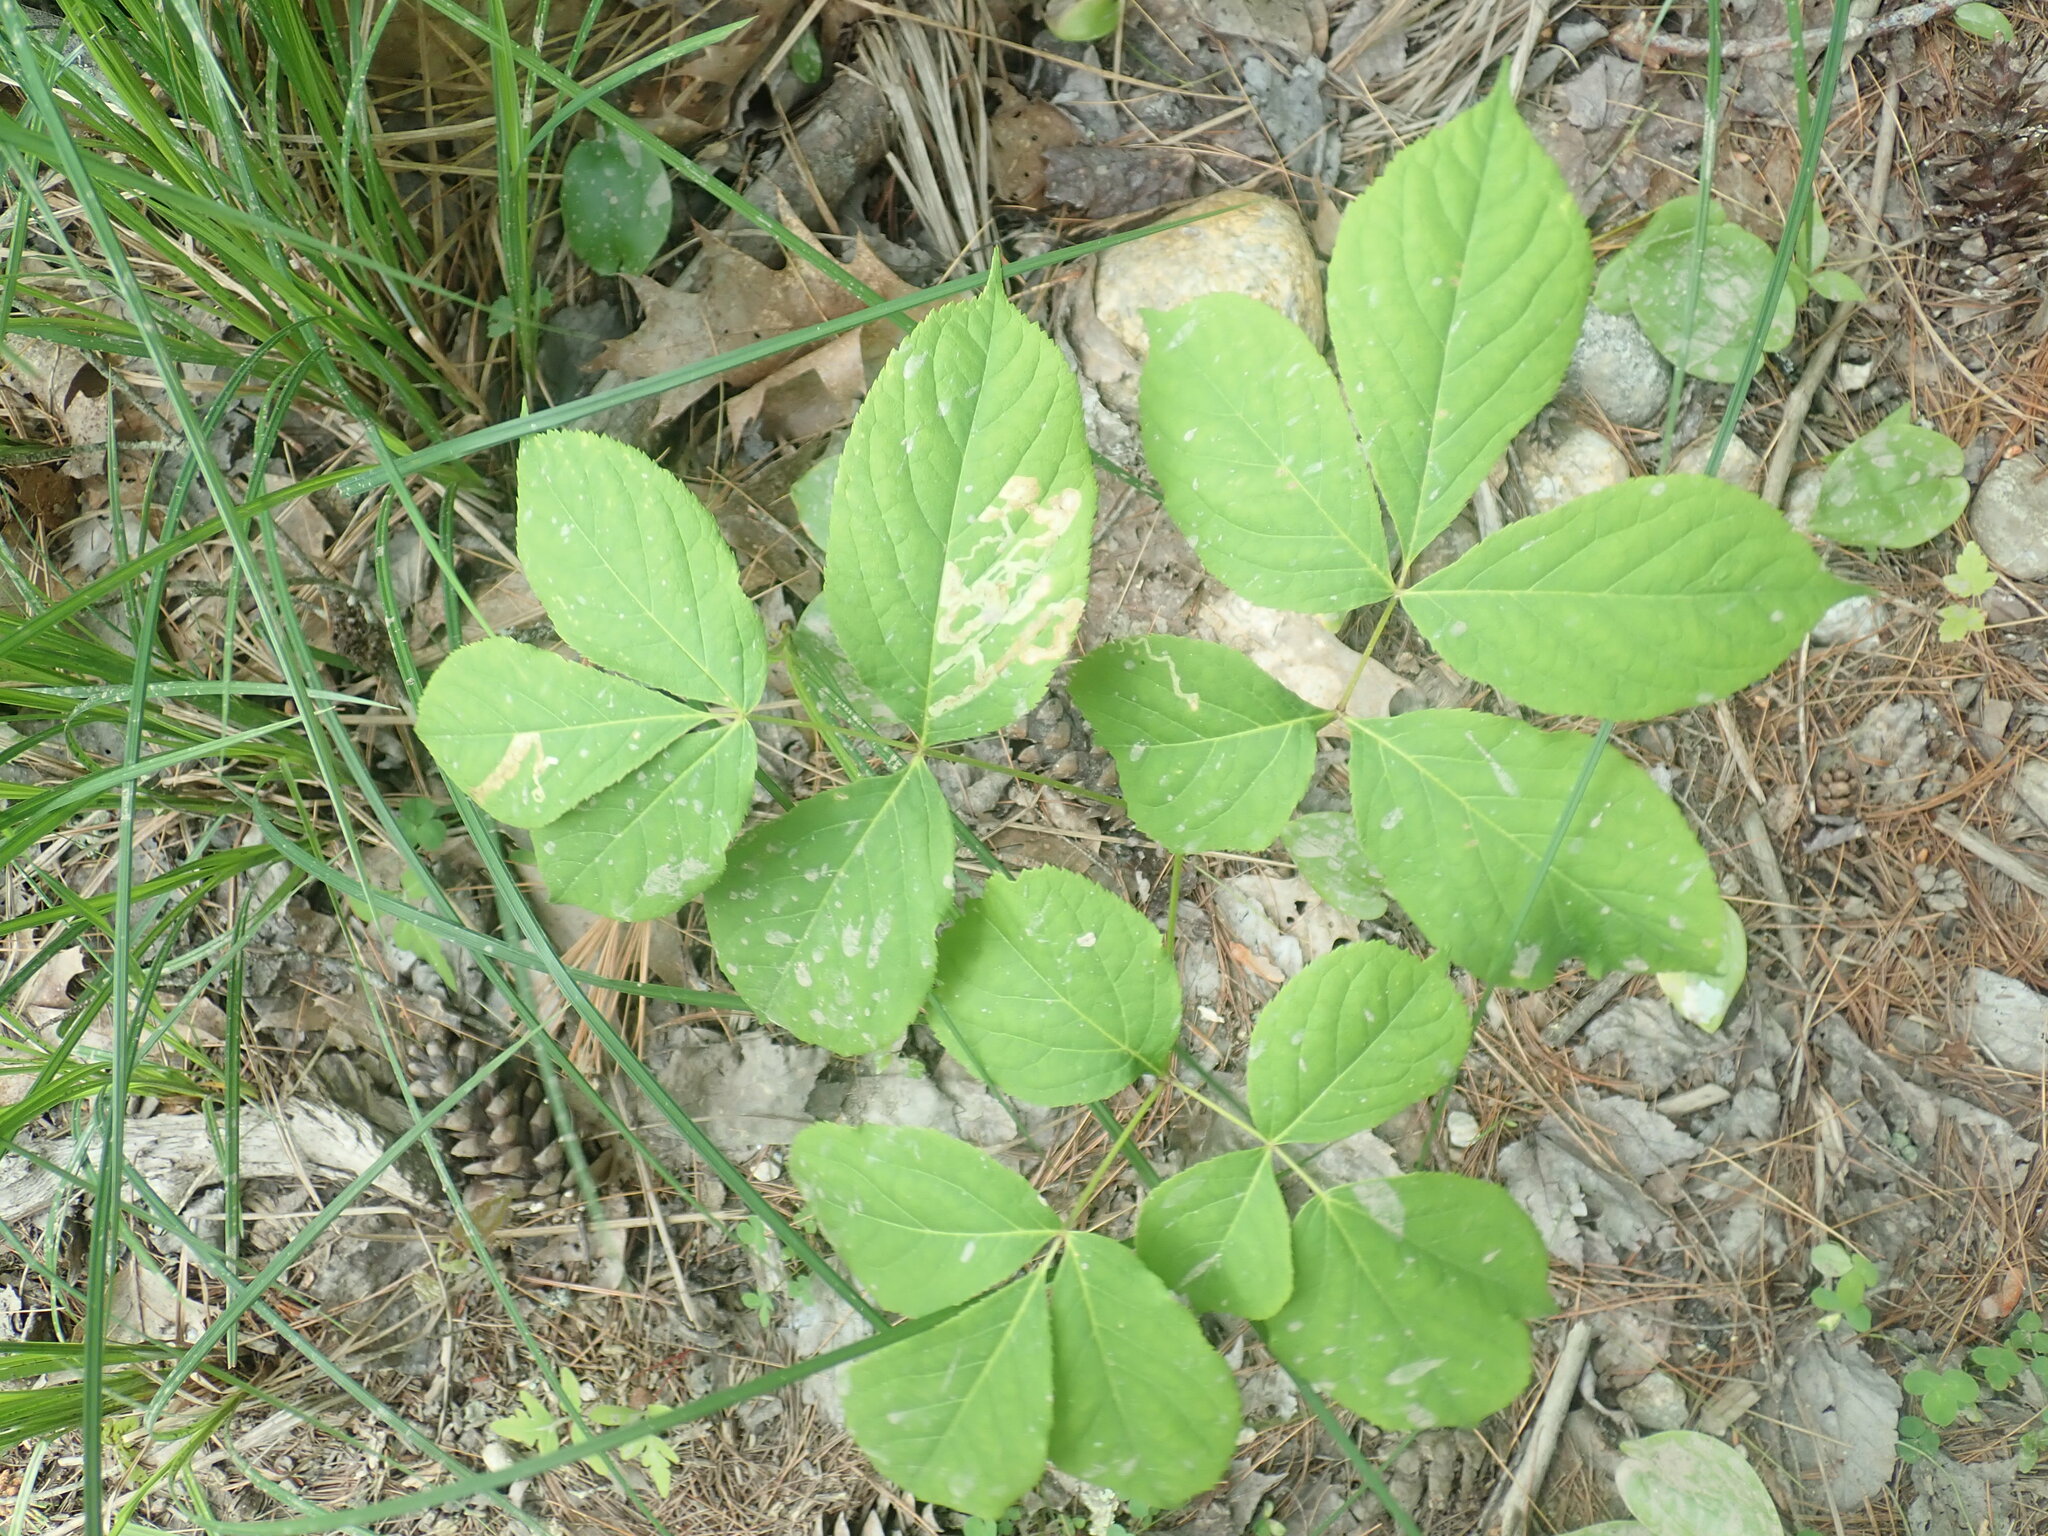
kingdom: Plantae
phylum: Tracheophyta
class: Magnoliopsida
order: Apiales
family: Araliaceae
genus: Aralia
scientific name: Aralia nudicaulis
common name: Wild sarsaparilla
